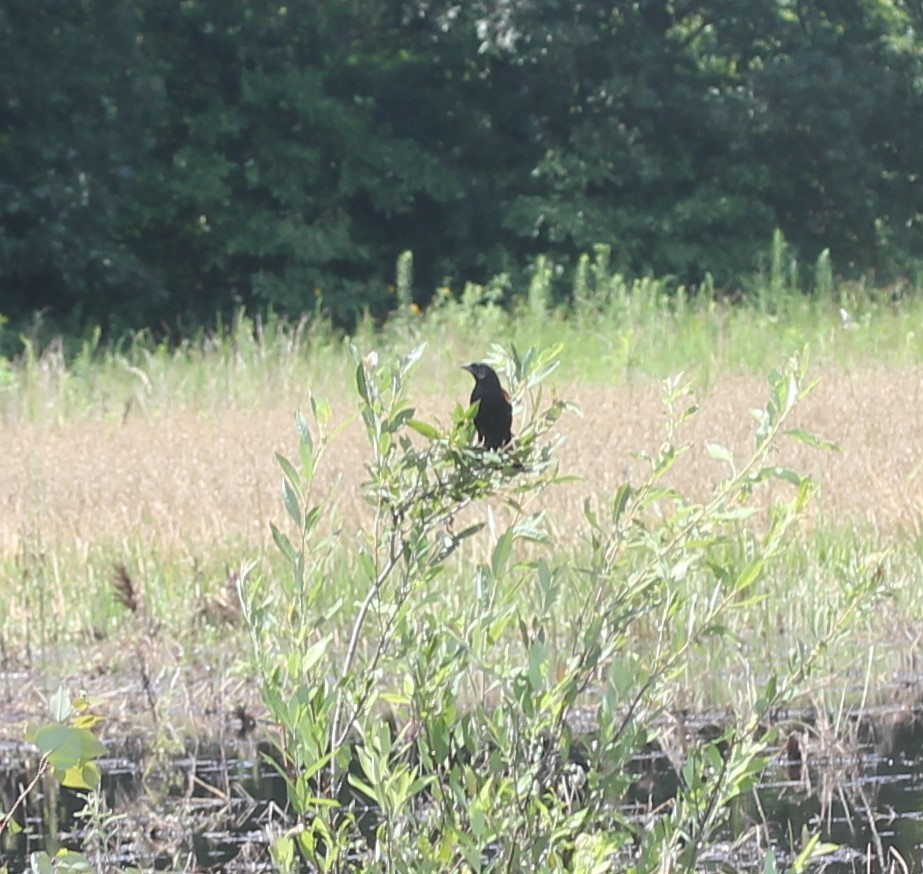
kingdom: Animalia
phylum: Chordata
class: Aves
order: Passeriformes
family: Icteridae
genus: Agelaius
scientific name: Agelaius phoeniceus
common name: Red-winged blackbird
